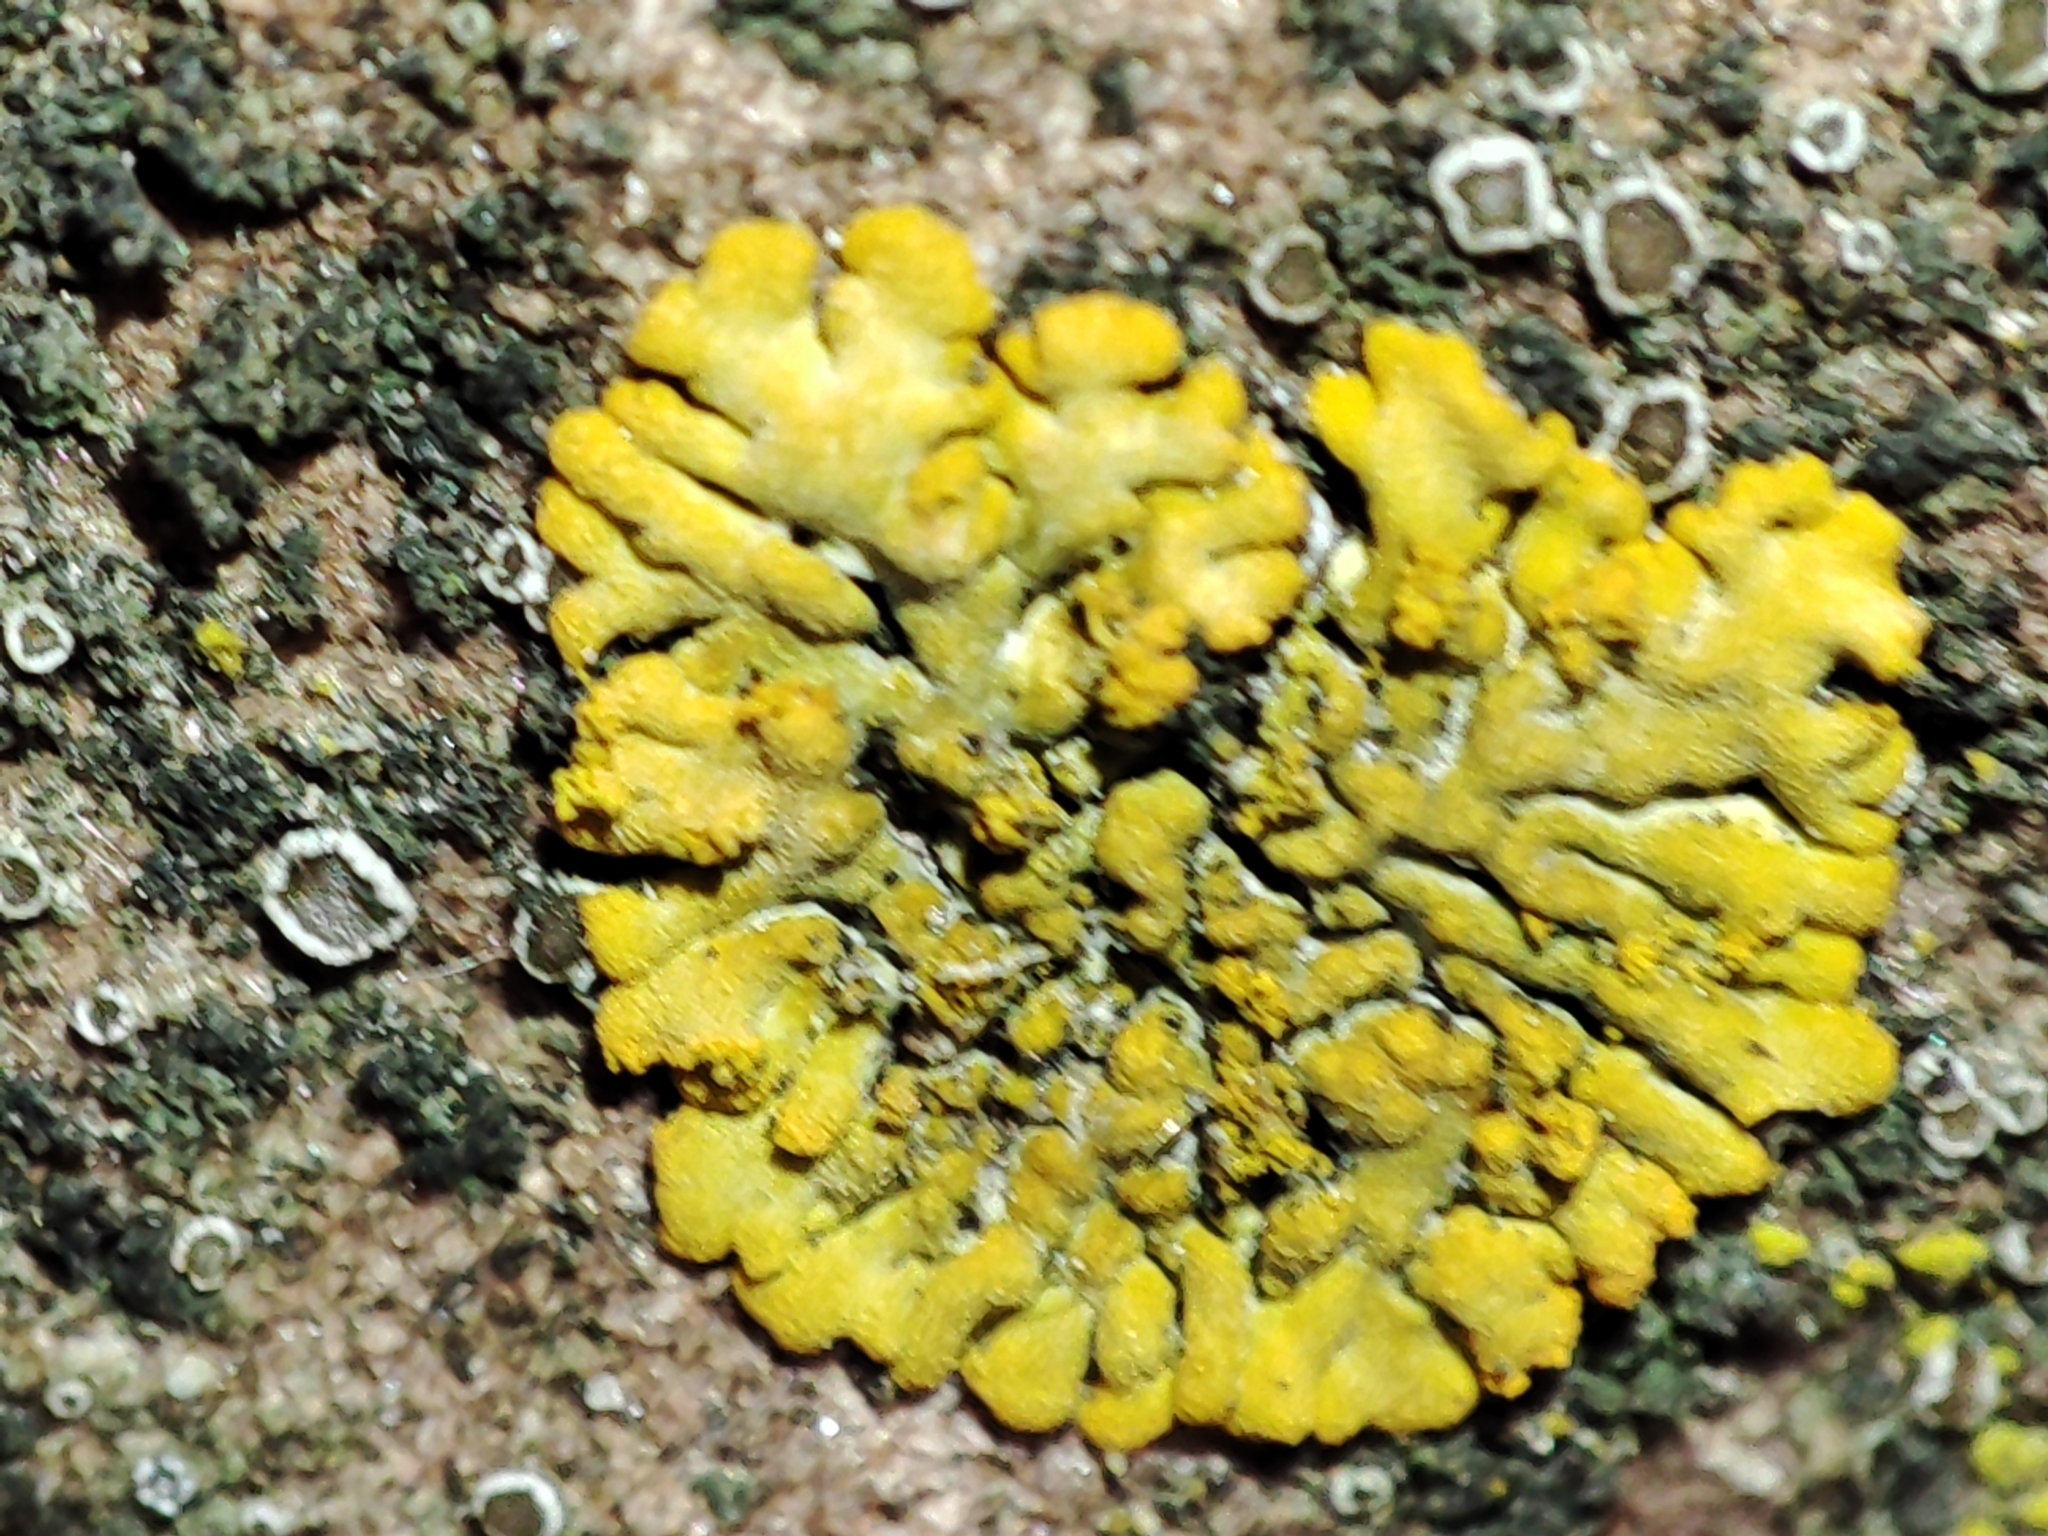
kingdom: Fungi
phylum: Ascomycota
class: Lecanoromycetes
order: Teloschistales
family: Teloschistaceae
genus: Calogaya
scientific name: Calogaya decipiens
